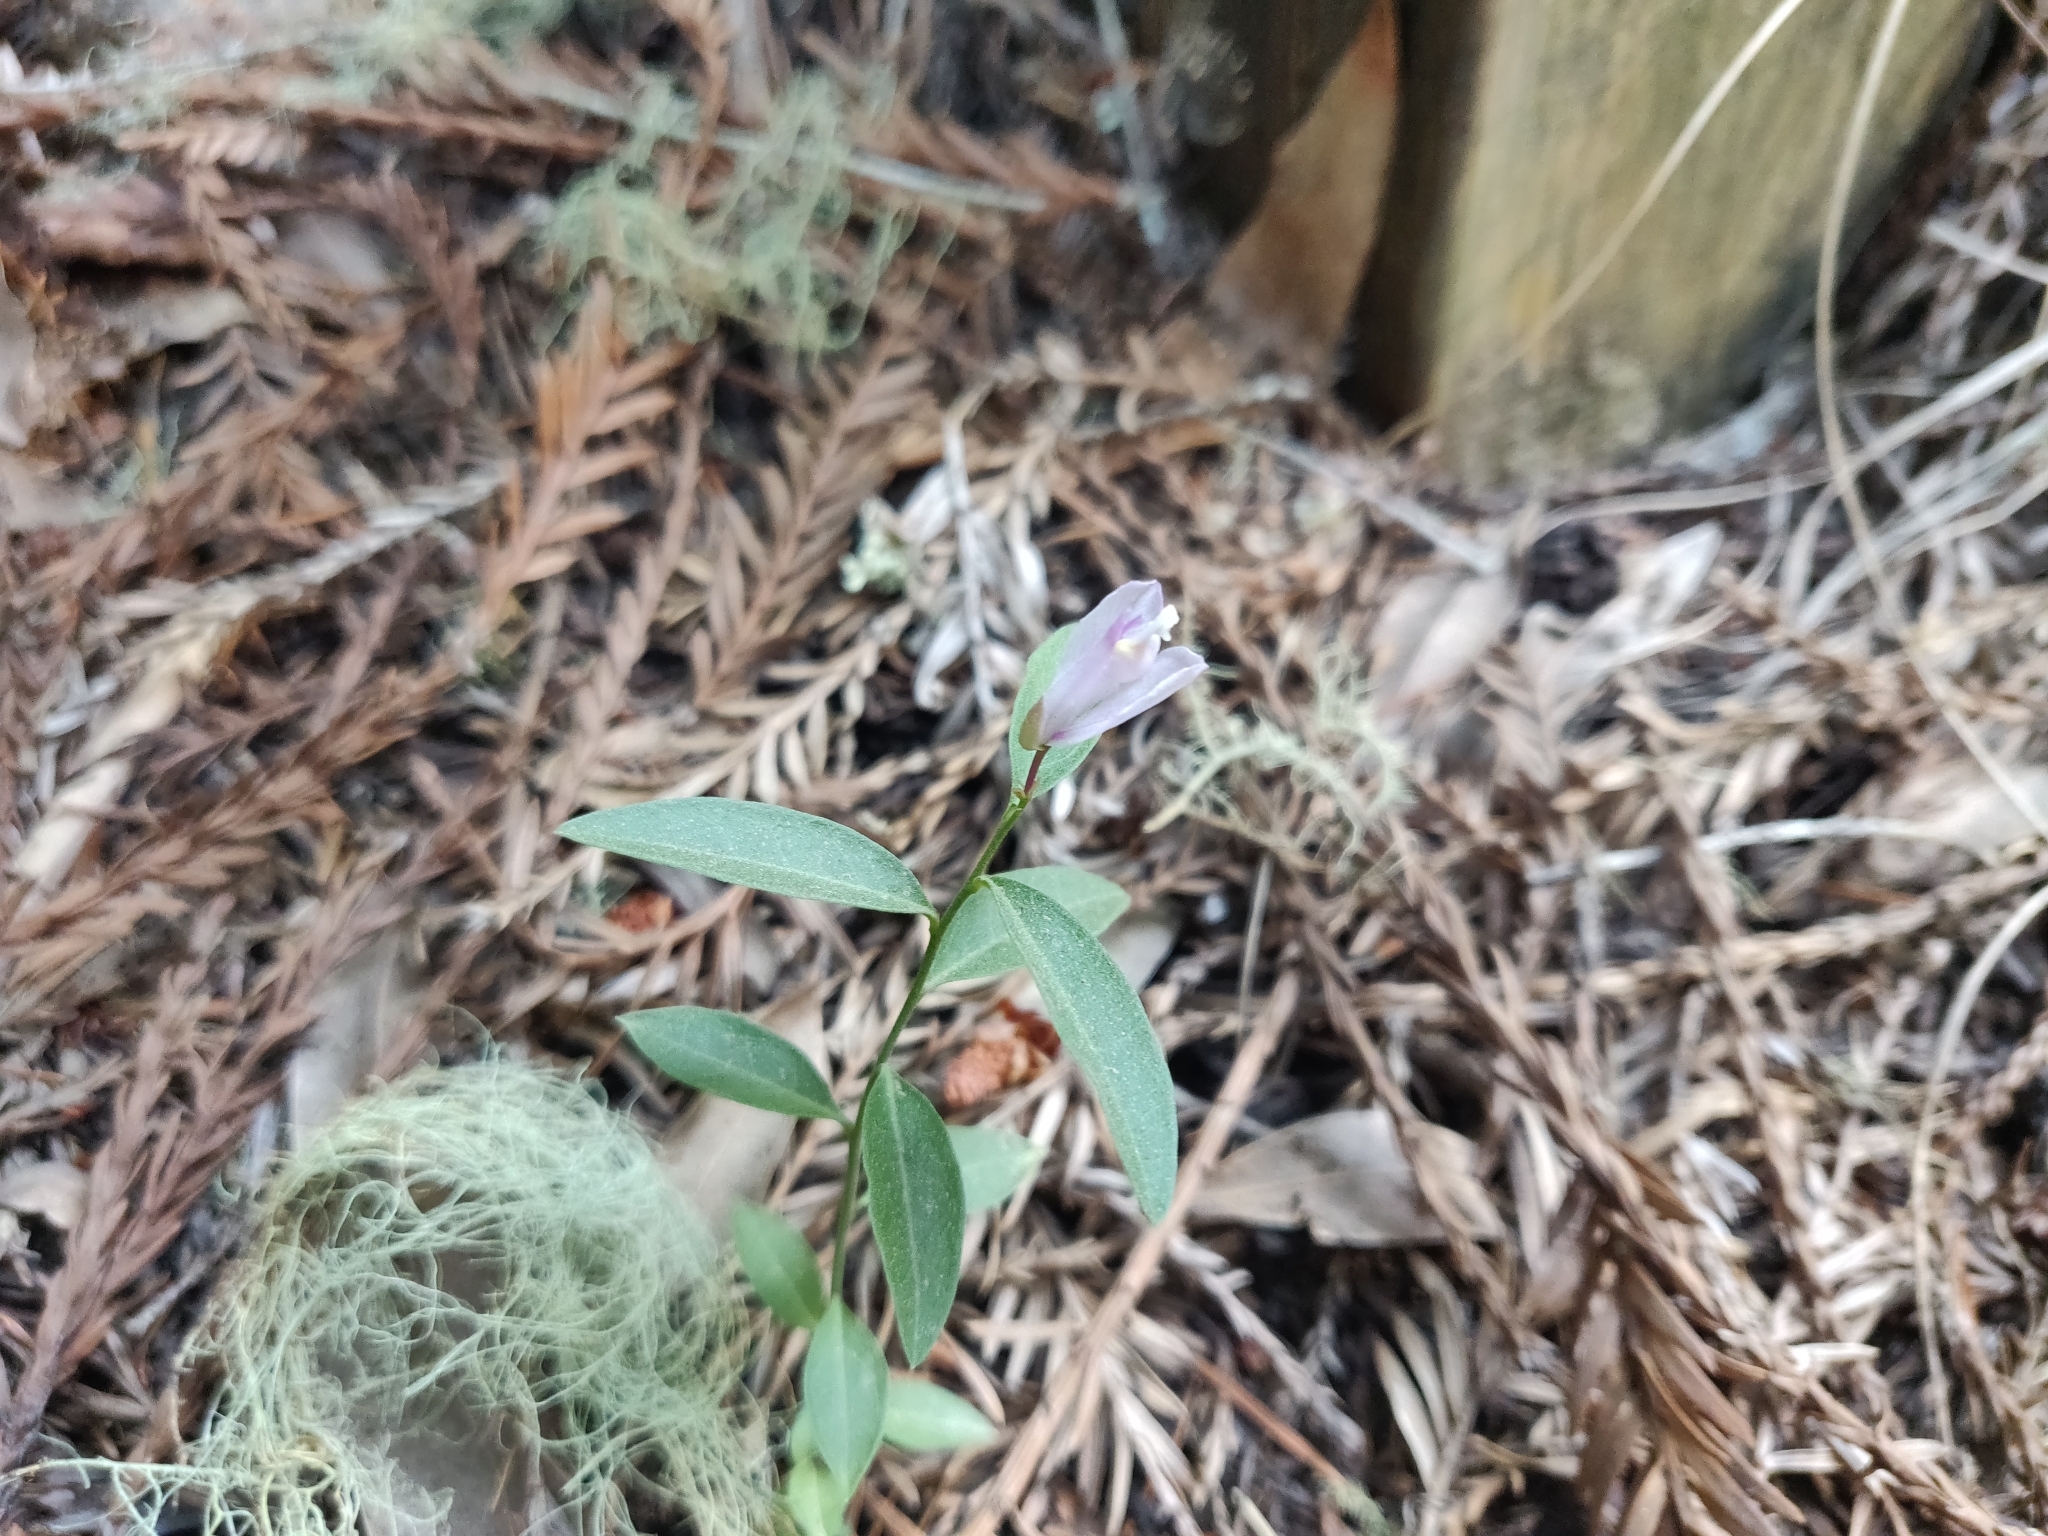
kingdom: Plantae
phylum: Tracheophyta
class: Magnoliopsida
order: Fabales
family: Polygalaceae
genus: Rhinotropis
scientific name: Rhinotropis californica
